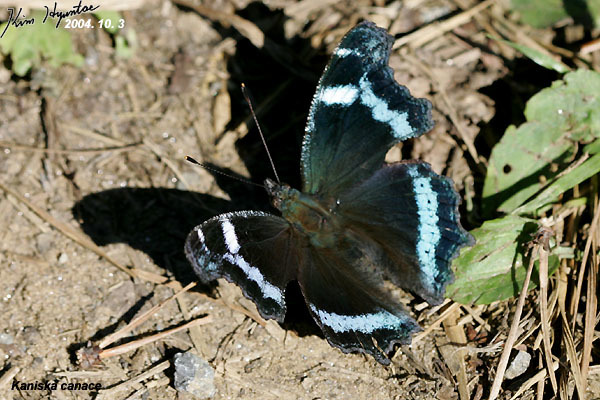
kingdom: Animalia
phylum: Arthropoda
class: Insecta
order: Lepidoptera
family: Nymphalidae
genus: Vanessa
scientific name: Vanessa Kaniska canace
